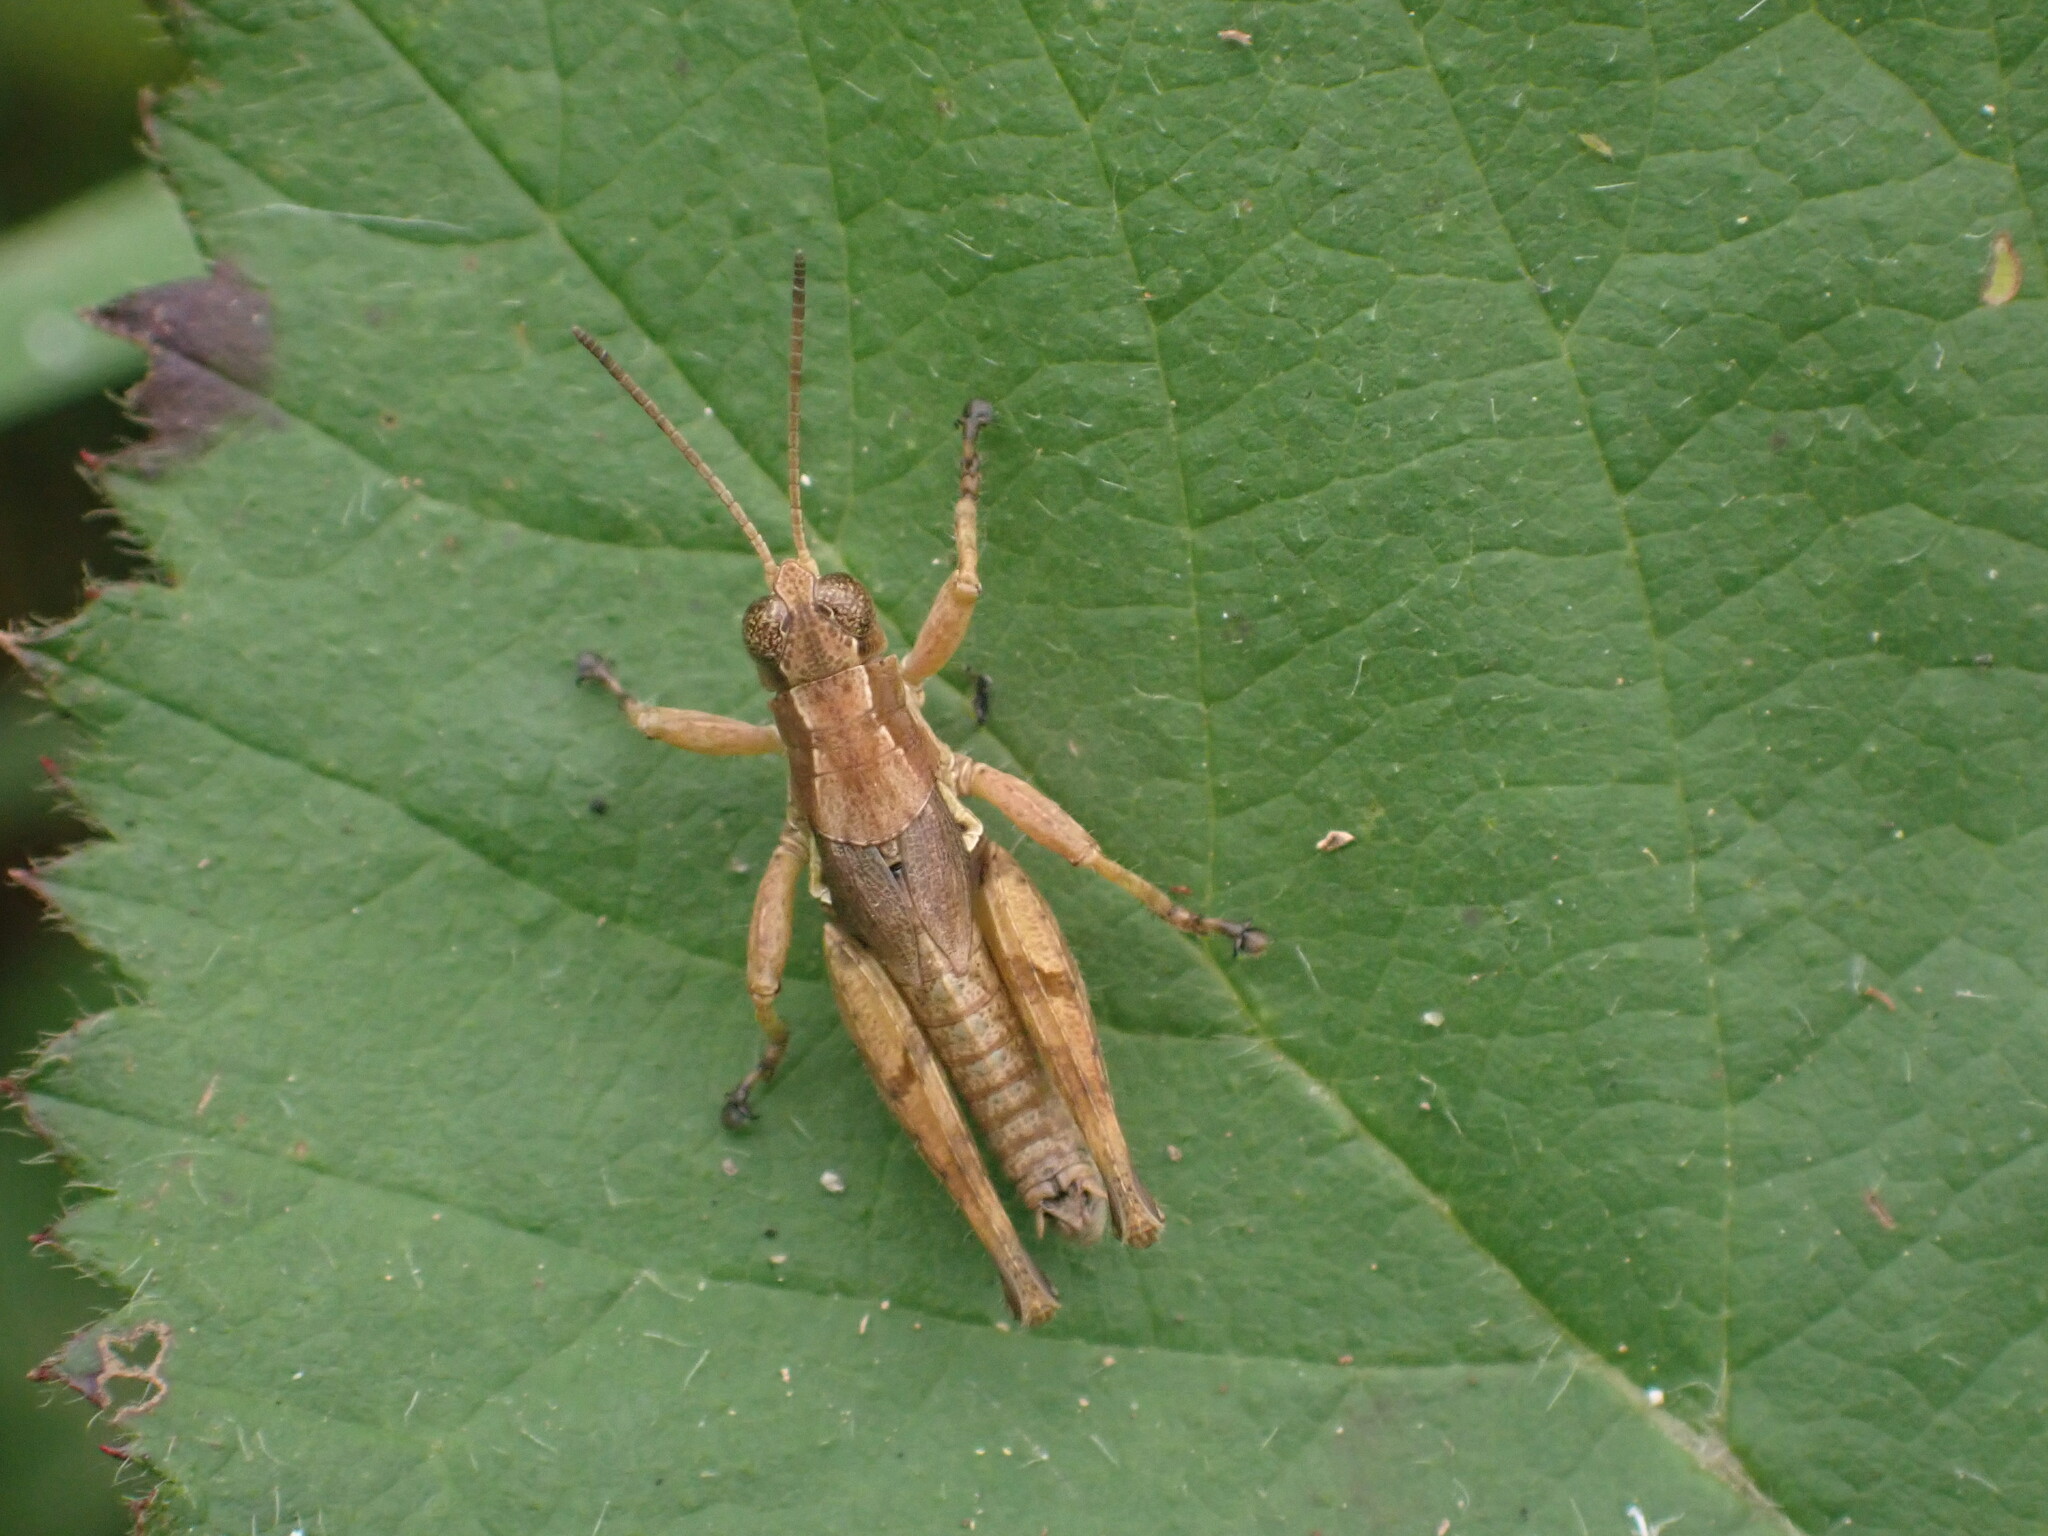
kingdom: Animalia
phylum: Arthropoda
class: Insecta
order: Orthoptera
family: Acrididae
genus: Phaulacridium
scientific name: Phaulacridium marginale
